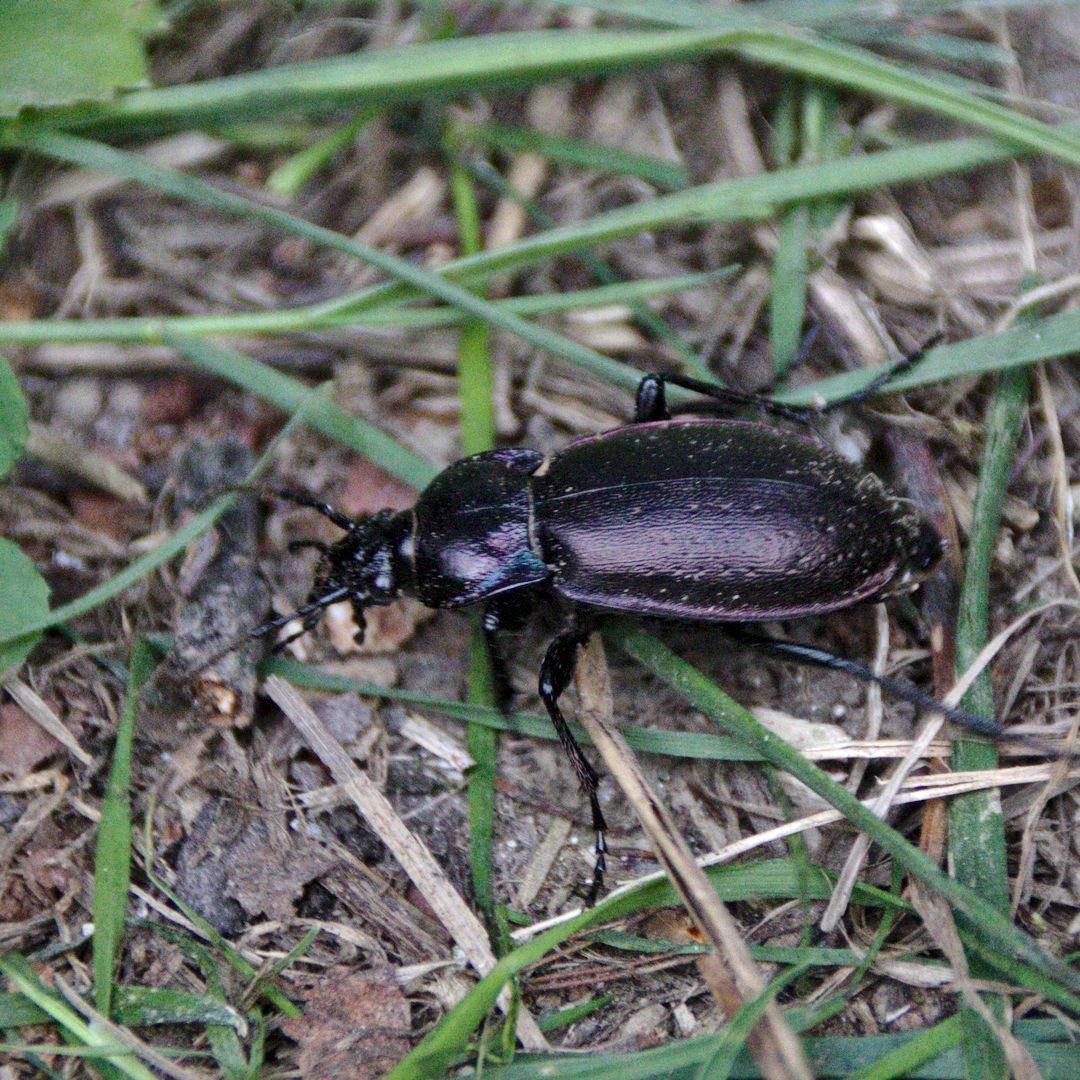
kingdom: Animalia
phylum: Arthropoda
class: Insecta
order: Coleoptera
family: Carabidae
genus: Carabus
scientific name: Carabus nemoralis
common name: European ground beetle
